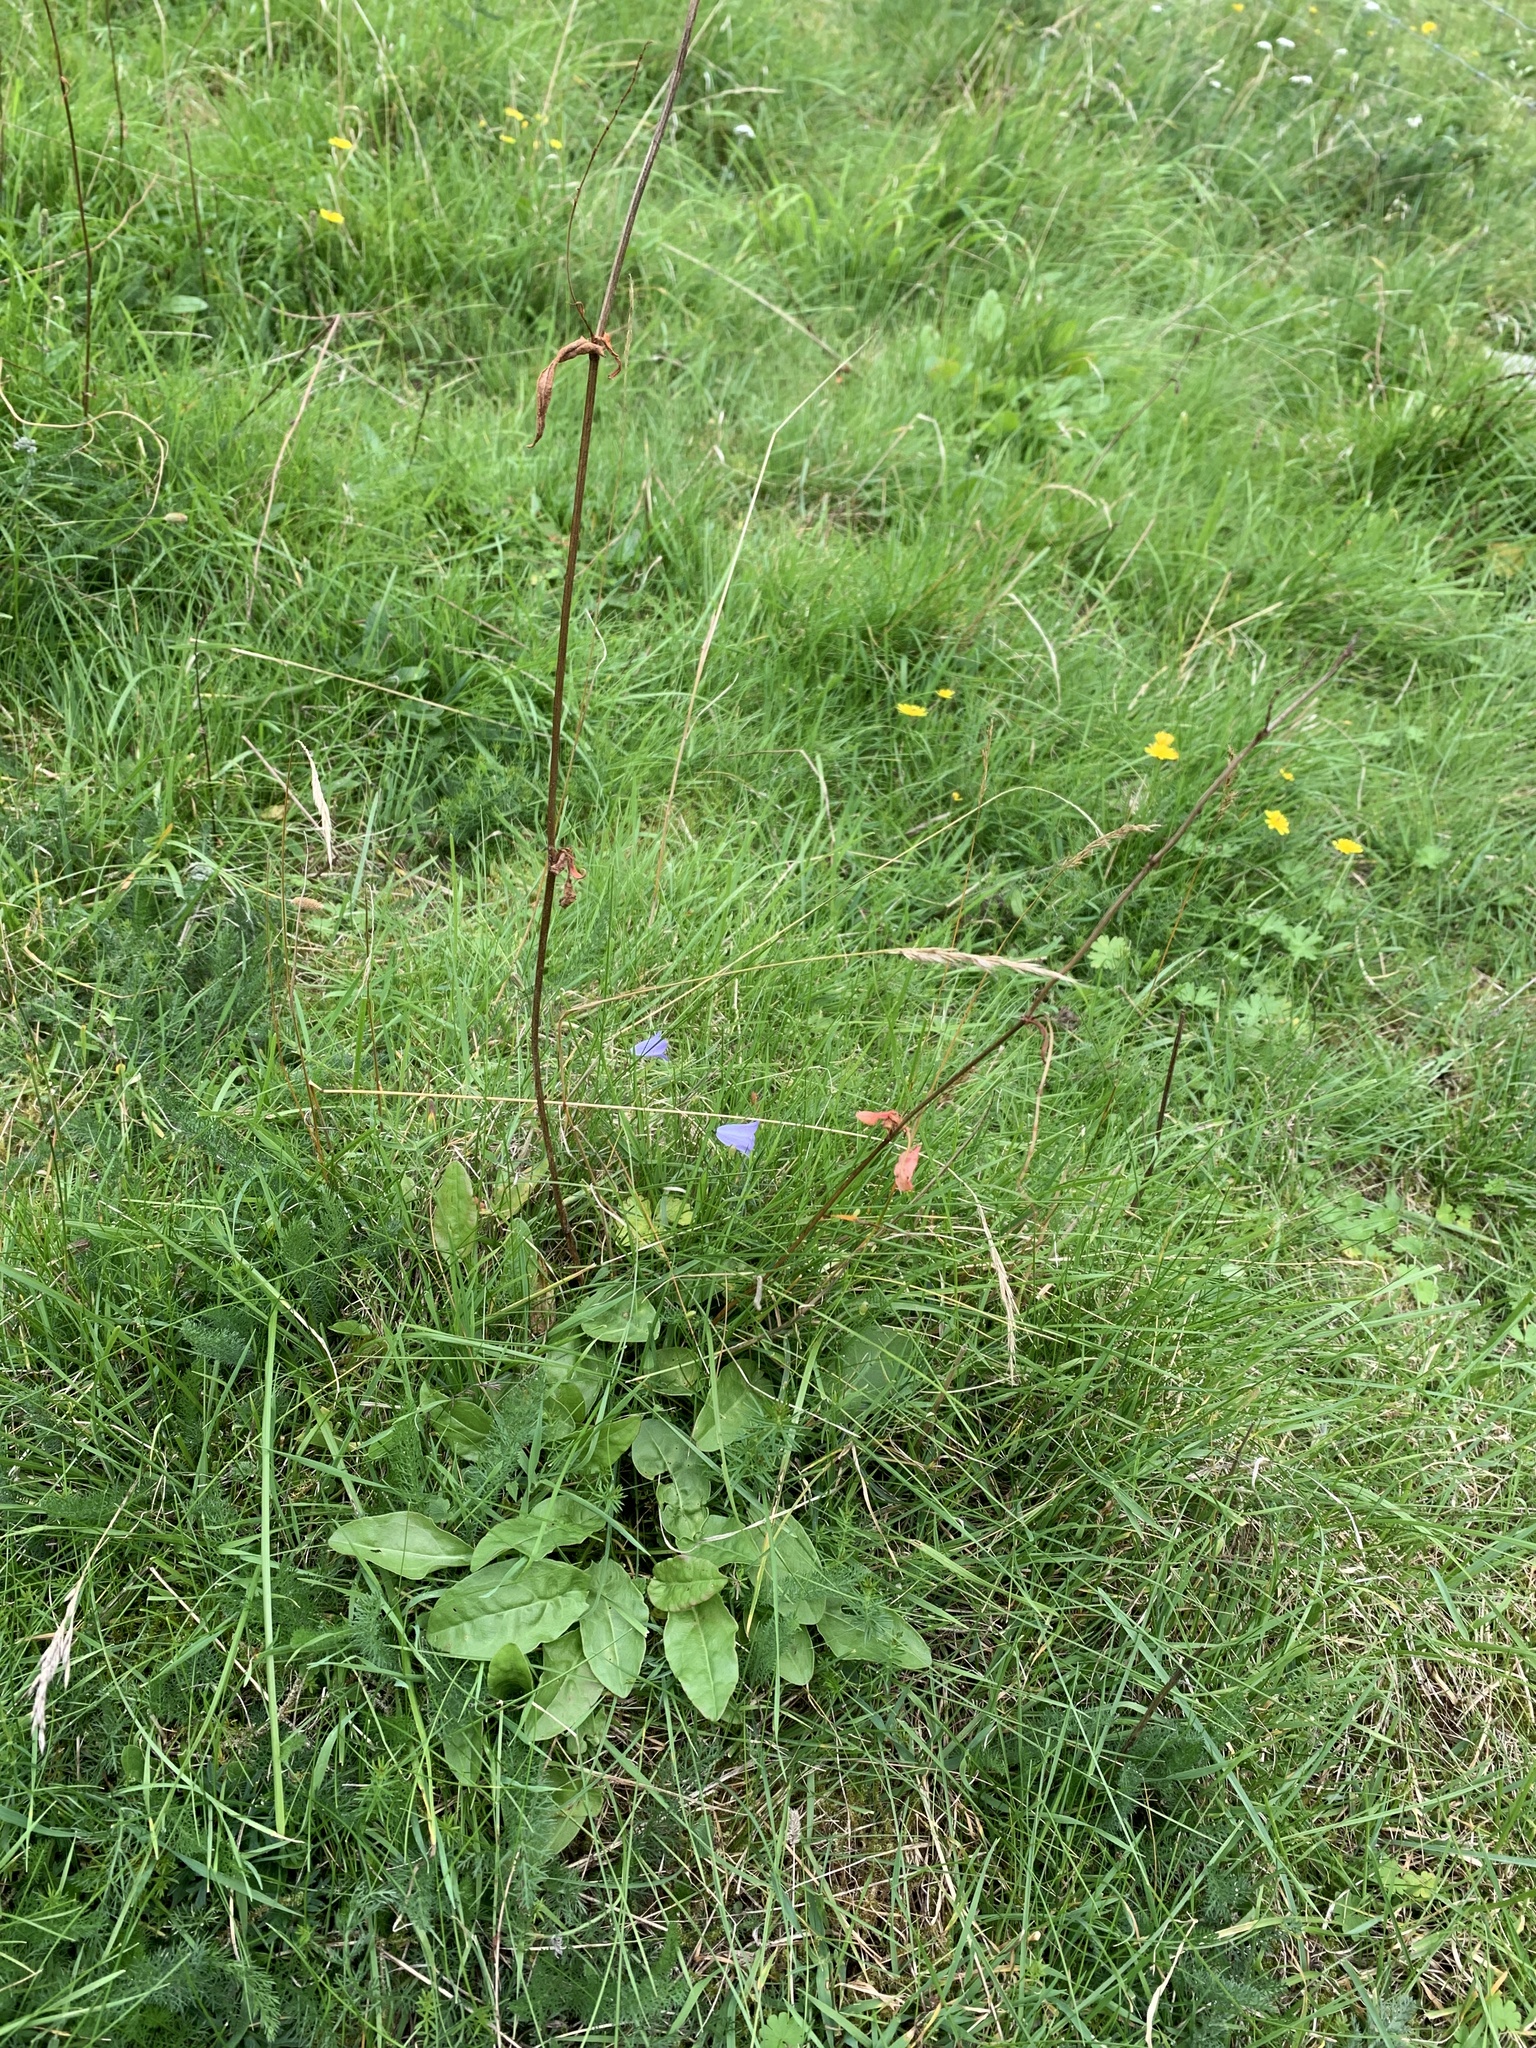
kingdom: Plantae
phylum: Tracheophyta
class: Magnoliopsida
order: Caryophyllales
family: Polygonaceae
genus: Rumex
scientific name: Rumex acetosa
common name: Garden sorrel
